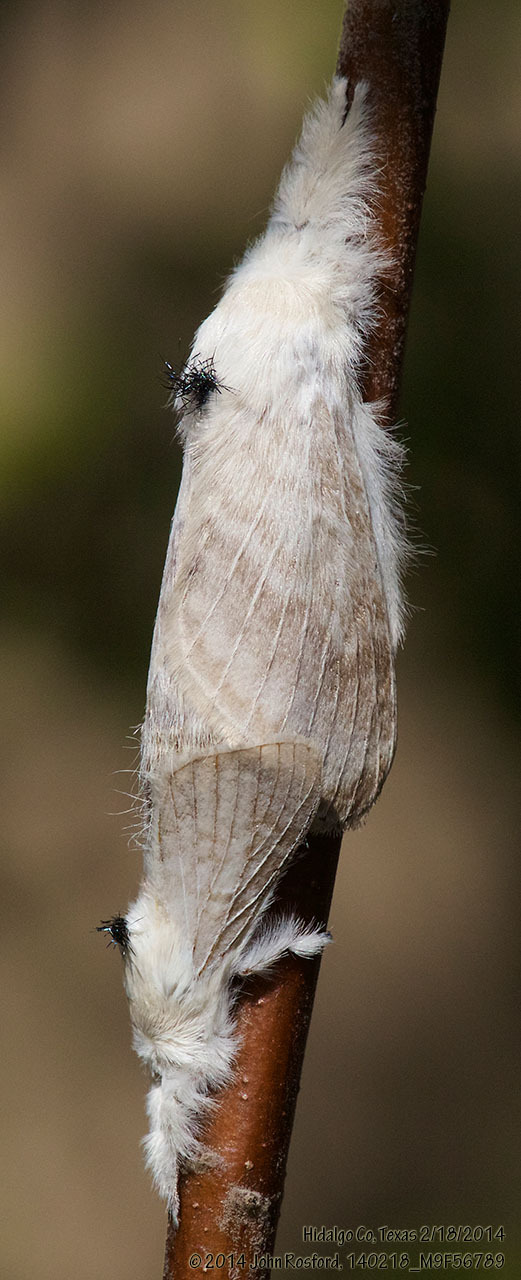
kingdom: Animalia
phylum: Arthropoda
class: Insecta
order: Lepidoptera
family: Lasiocampidae
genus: Apotolype
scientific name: Apotolype blanchardi
